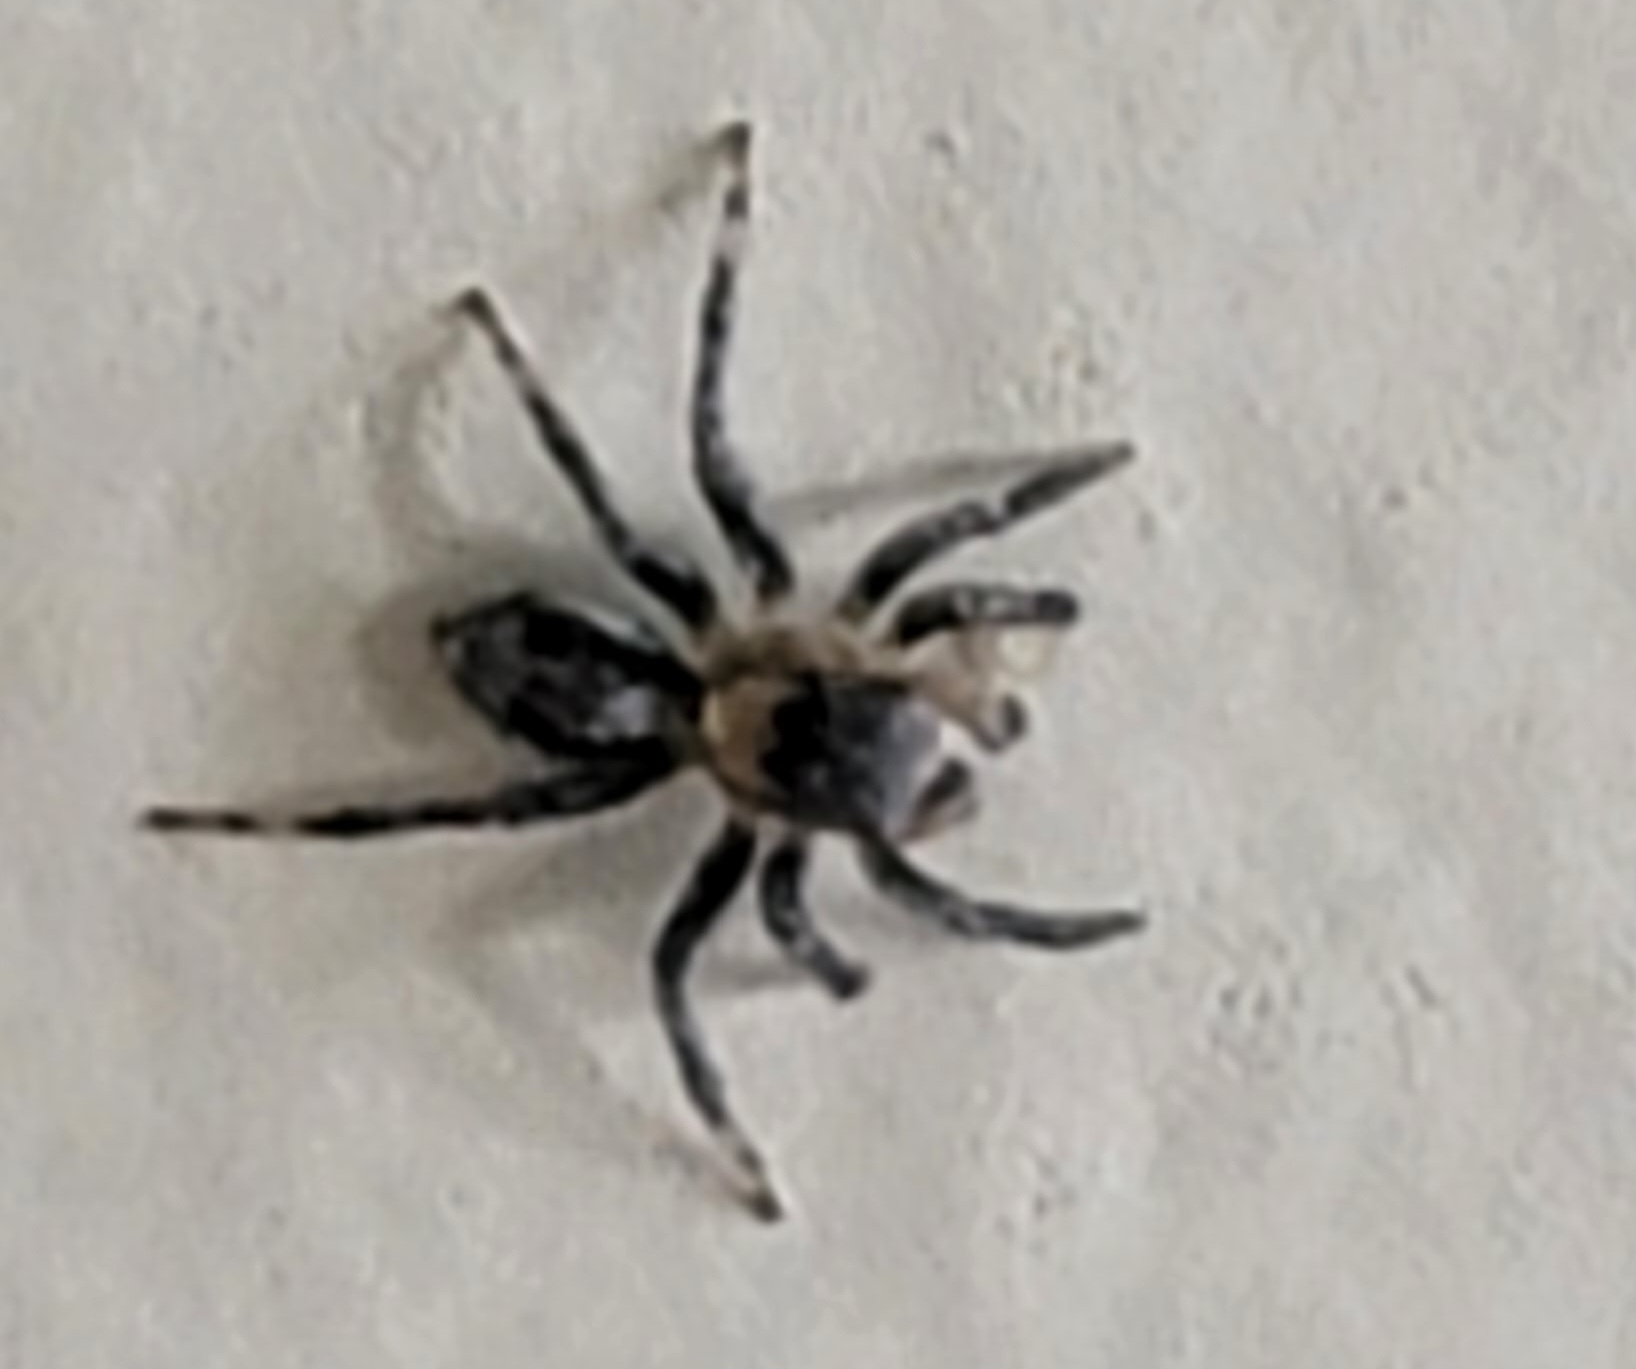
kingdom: Animalia
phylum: Arthropoda
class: Arachnida
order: Araneae
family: Salticidae
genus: Naphrys
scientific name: Naphrys pulex
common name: Flea jumping spider
